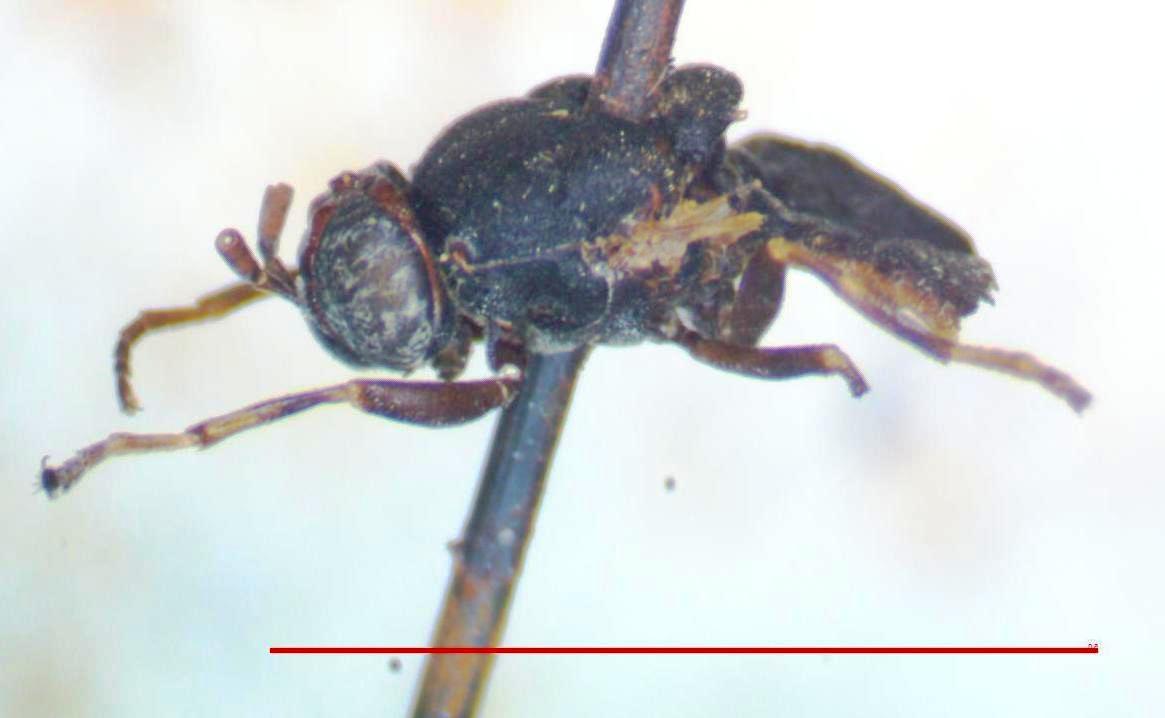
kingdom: Animalia
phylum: Arthropoda
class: Insecta
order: Diptera
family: Stratiomyidae
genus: Dicyphoma
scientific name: Dicyphoma schaefferi
